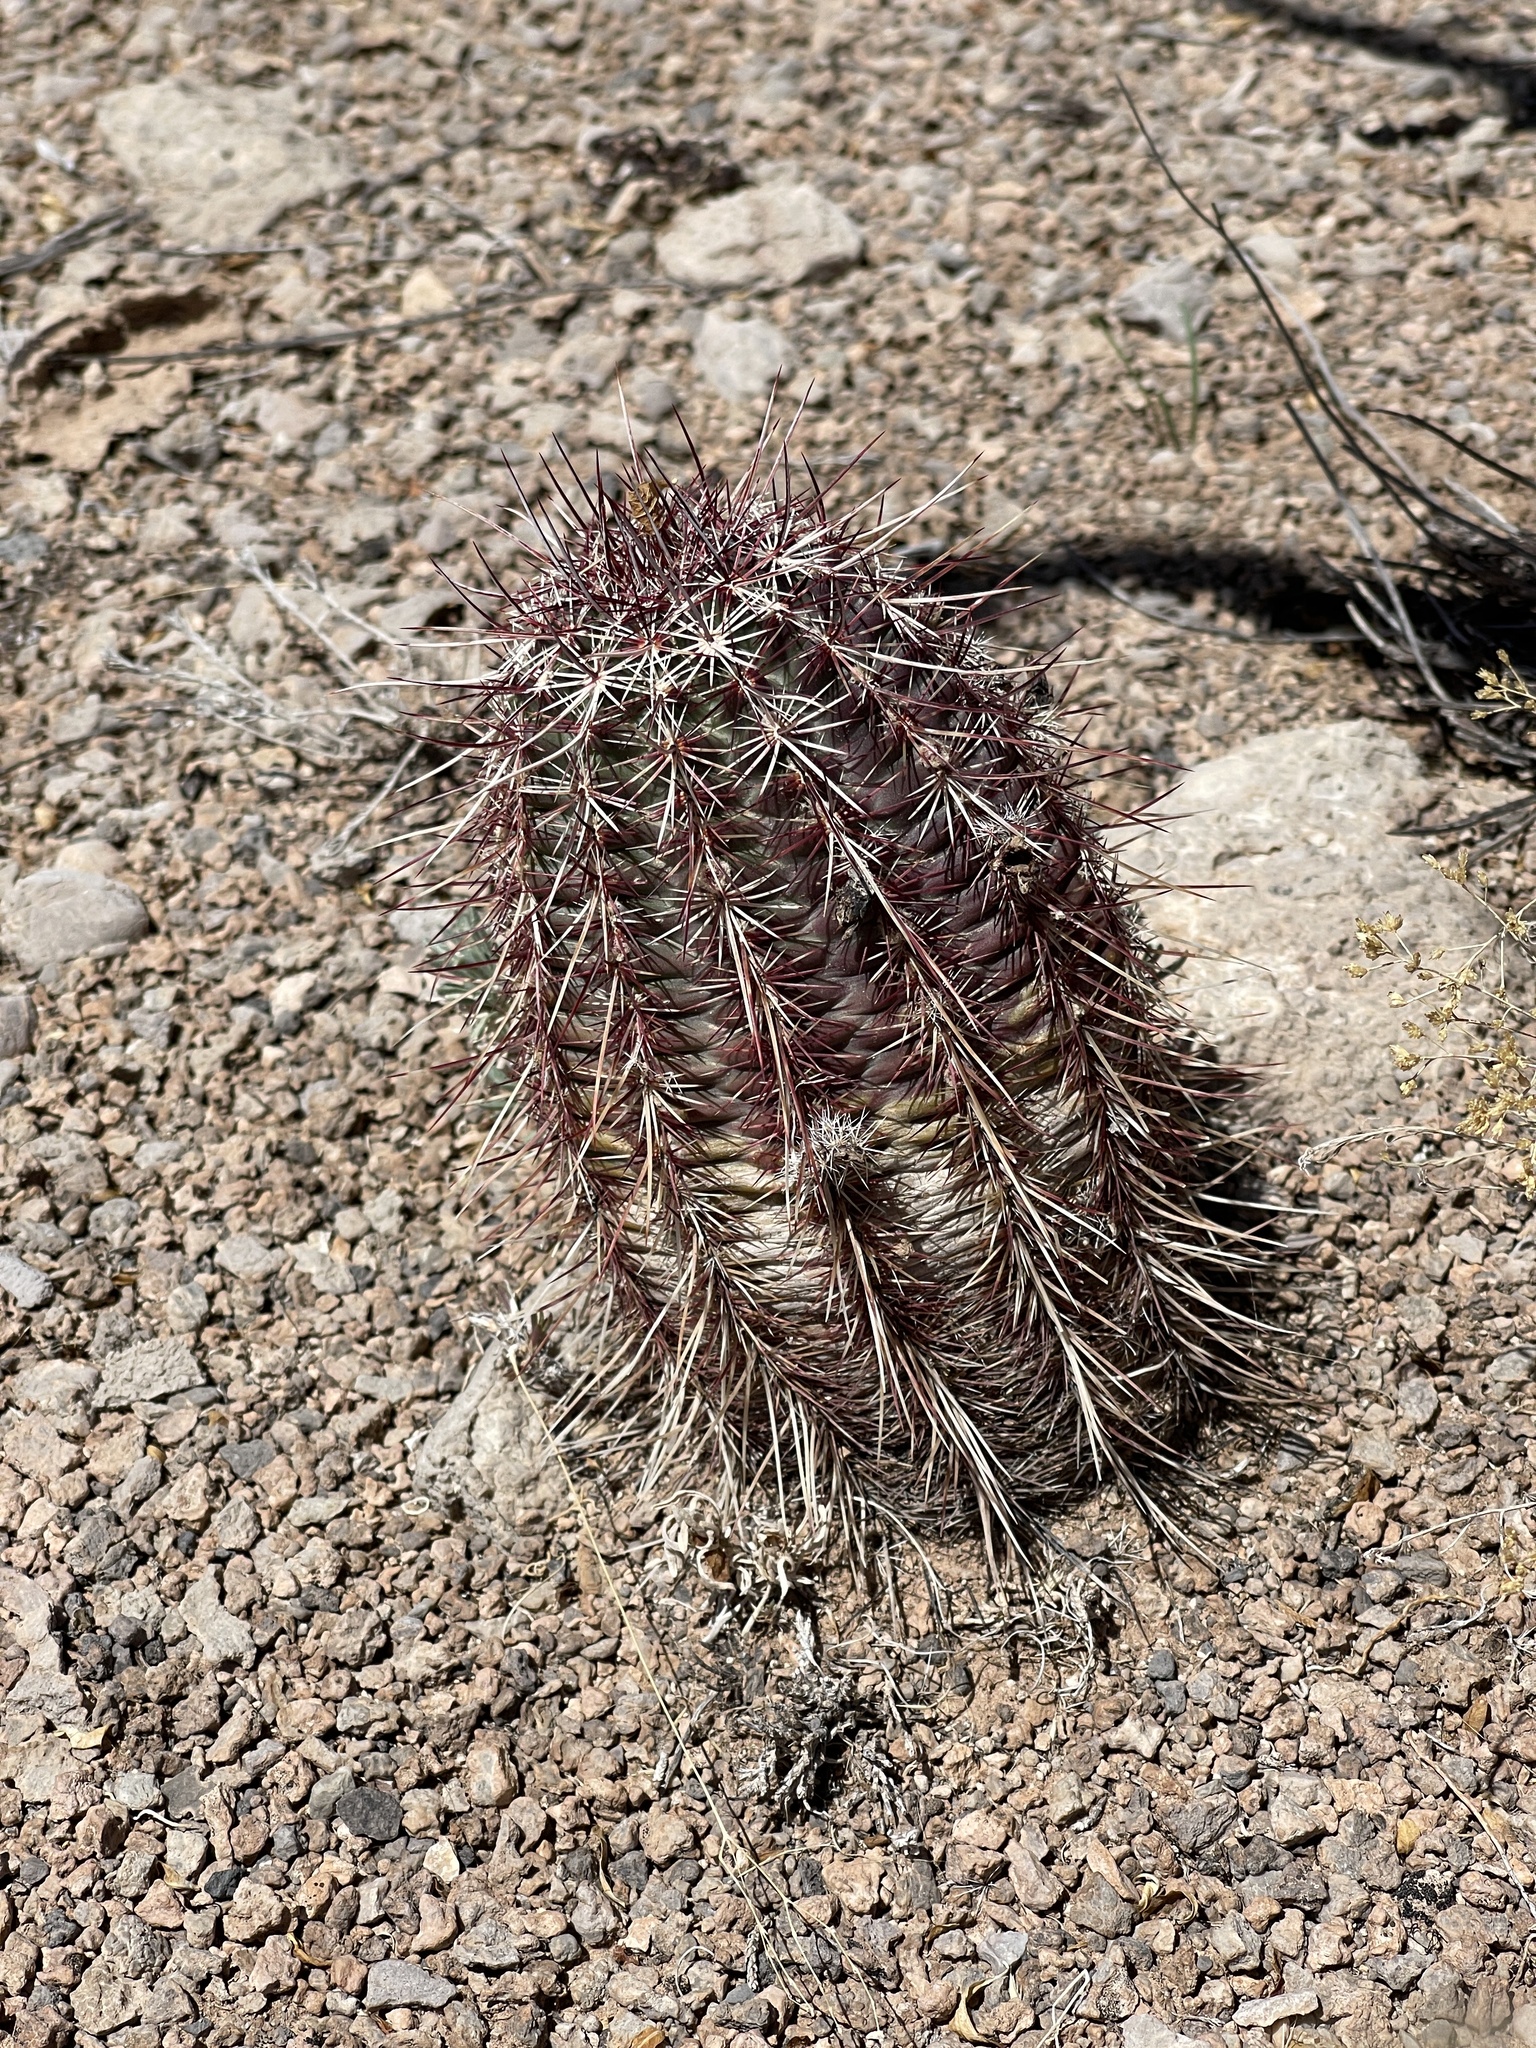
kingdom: Plantae
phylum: Tracheophyta
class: Magnoliopsida
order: Caryophyllales
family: Cactaceae
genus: Echinocereus
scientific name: Echinocereus viridiflorus
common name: Nylon hedgehog cactus
